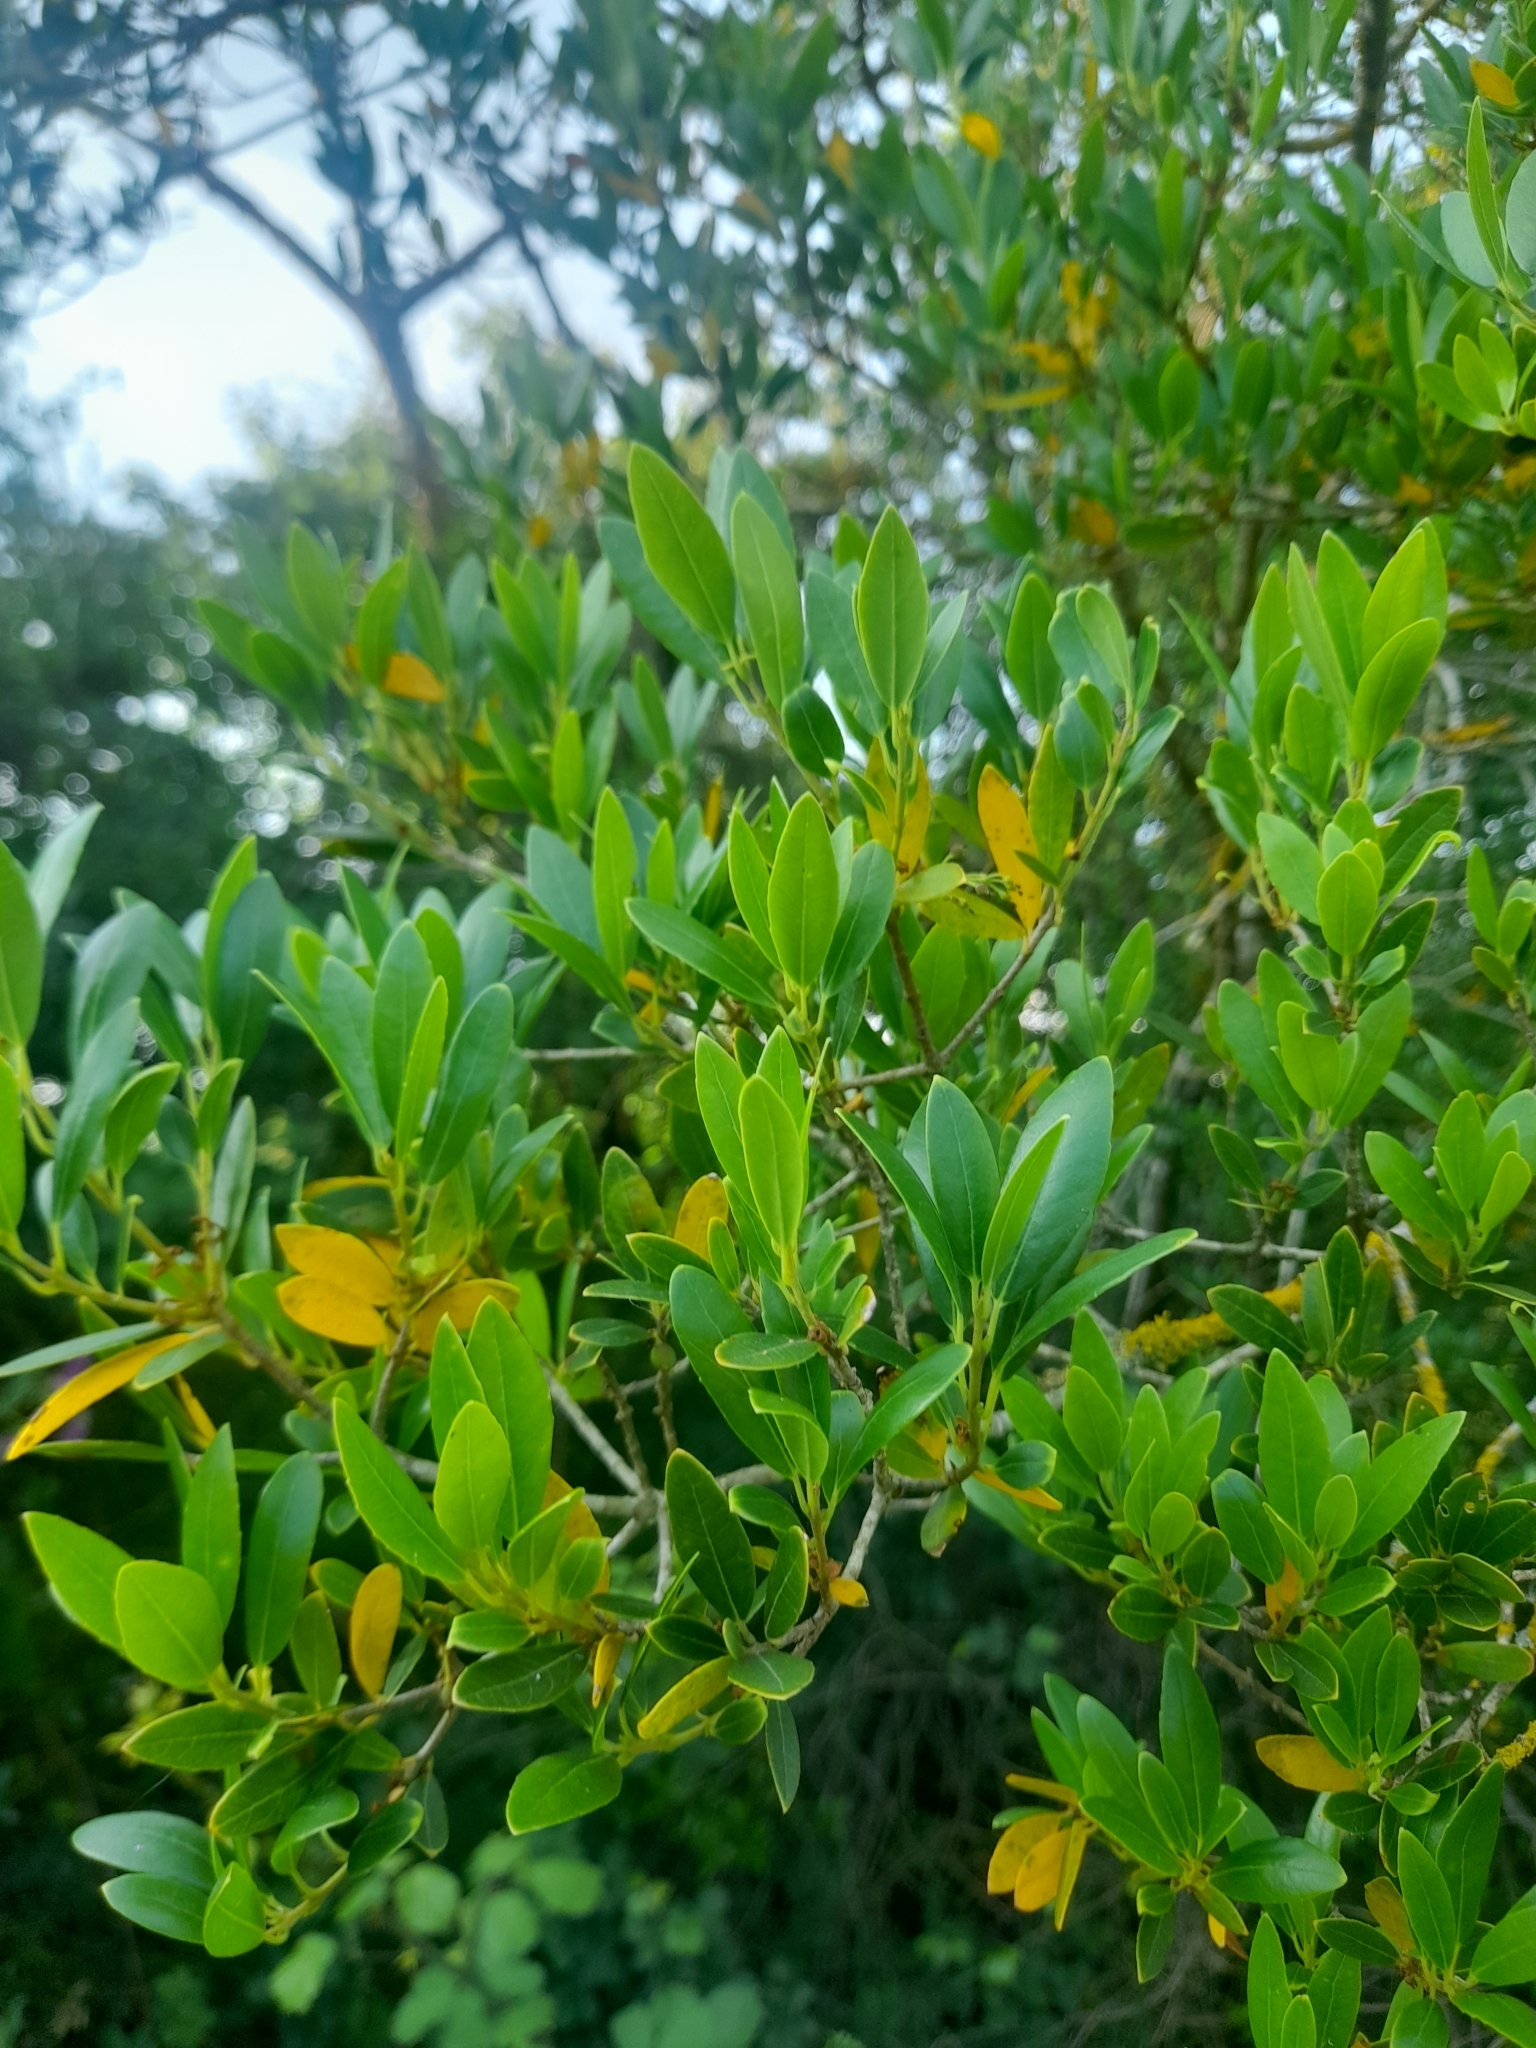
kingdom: Plantae
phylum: Tracheophyta
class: Magnoliopsida
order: Lamiales
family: Oleaceae
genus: Phillyrea
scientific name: Phillyrea angustifolia
